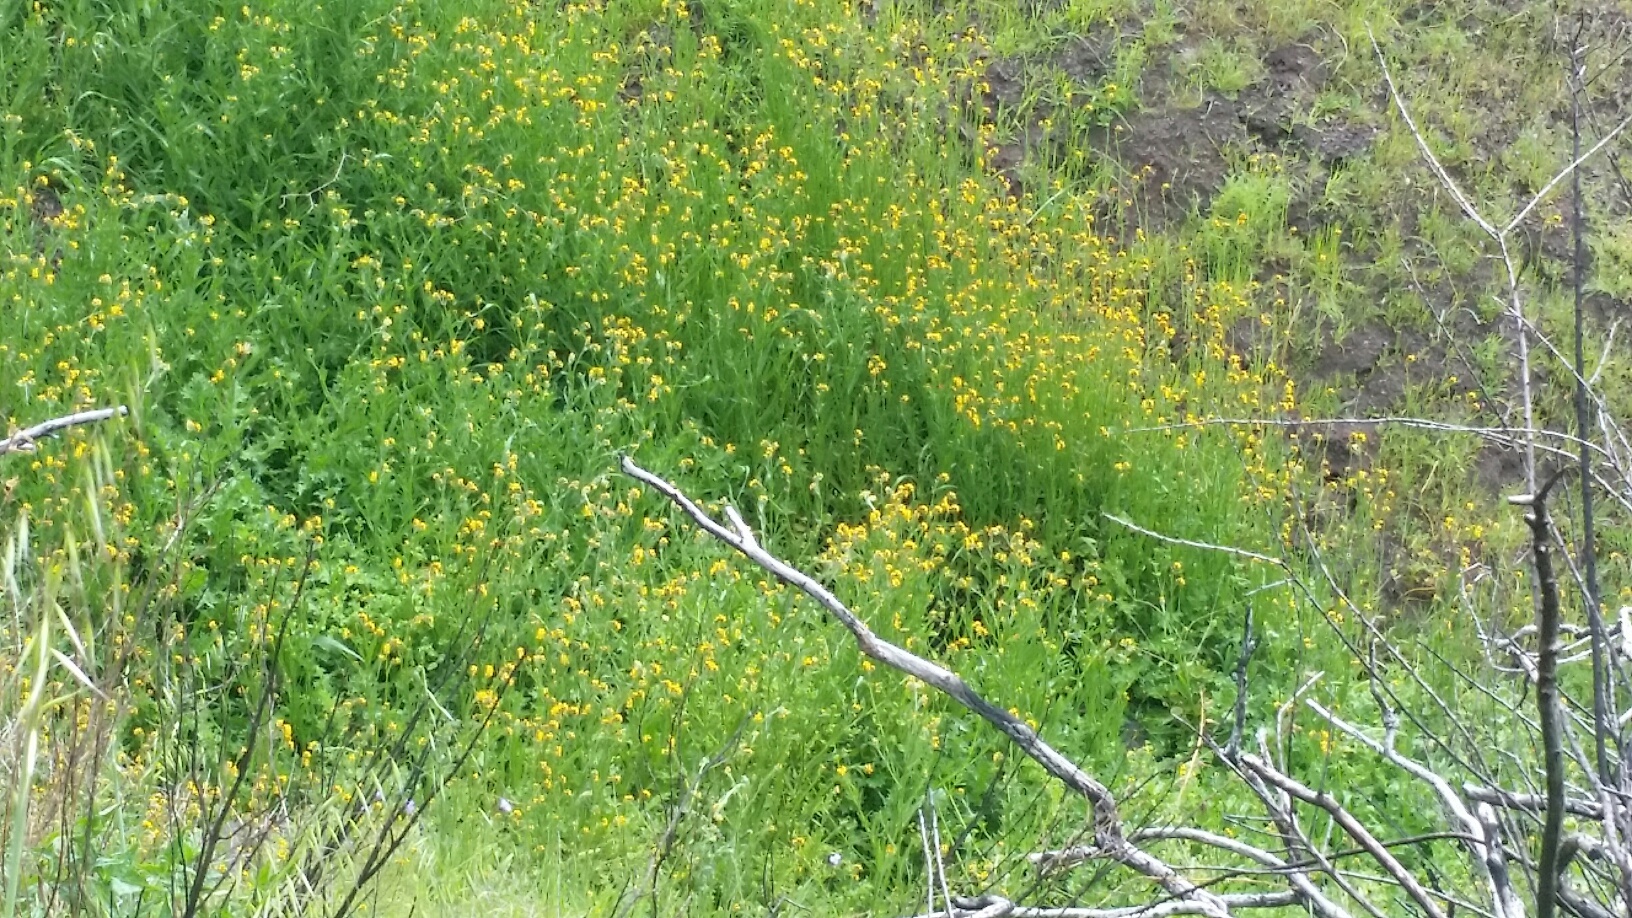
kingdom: Plantae
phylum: Tracheophyta
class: Magnoliopsida
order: Boraginales
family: Hydrophyllaceae
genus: Emmenanthe
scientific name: Emmenanthe penduliflora
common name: Whispering-bells
